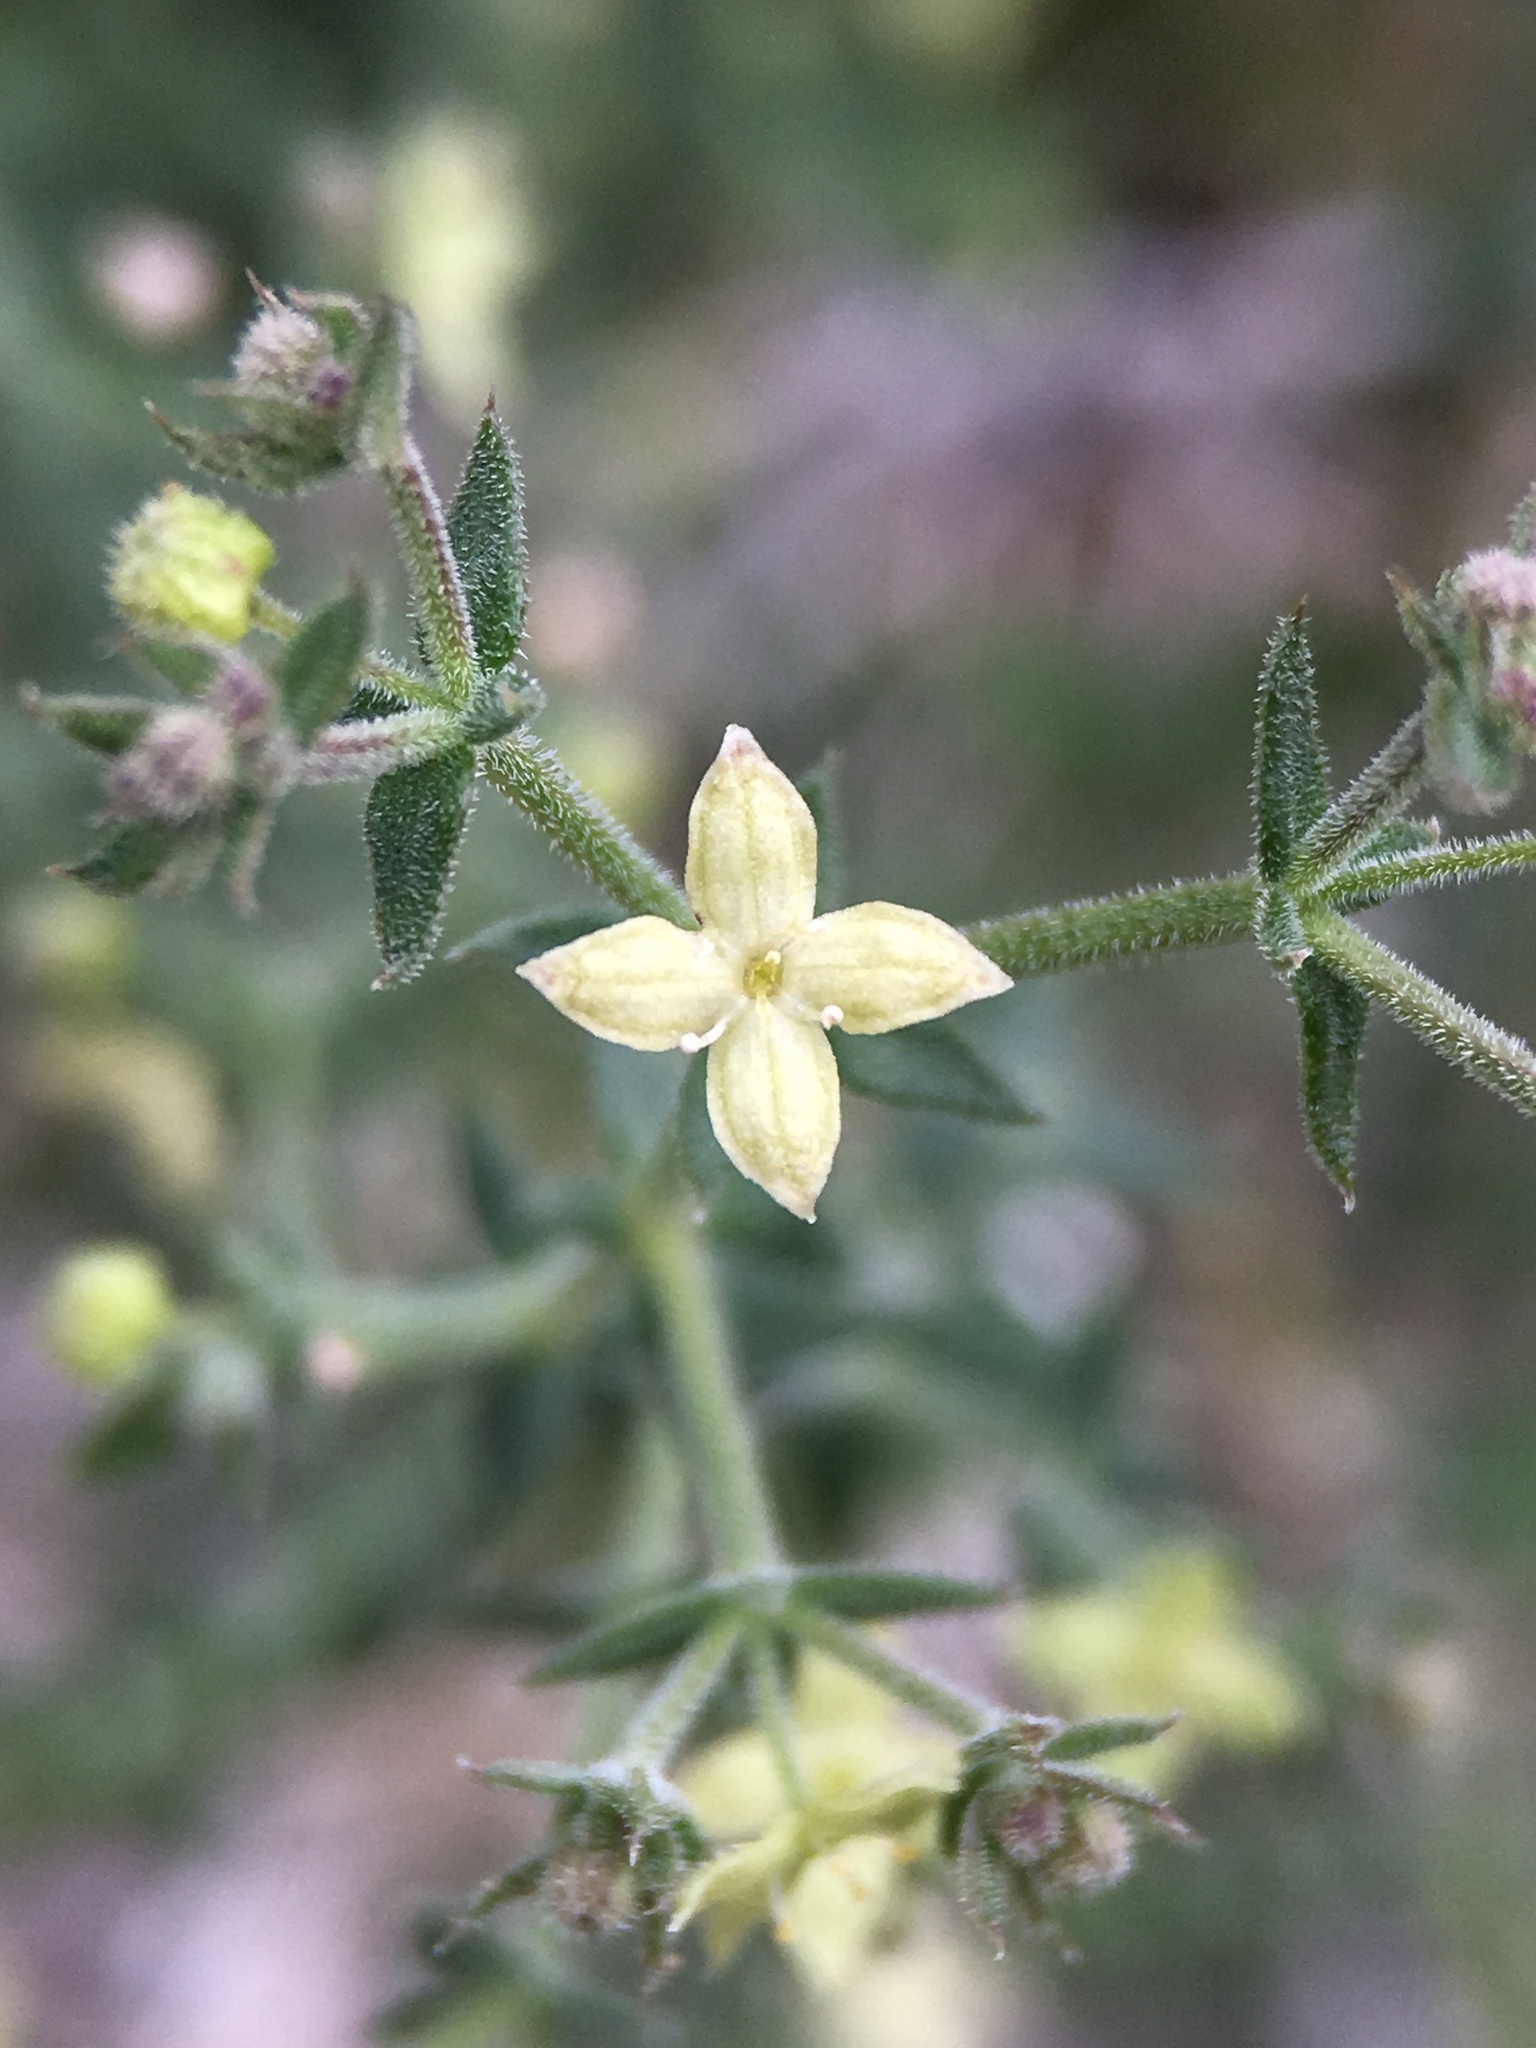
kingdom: Plantae
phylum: Tracheophyta
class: Magnoliopsida
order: Gentianales
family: Rubiaceae
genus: Galium
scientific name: Galium stellatum
